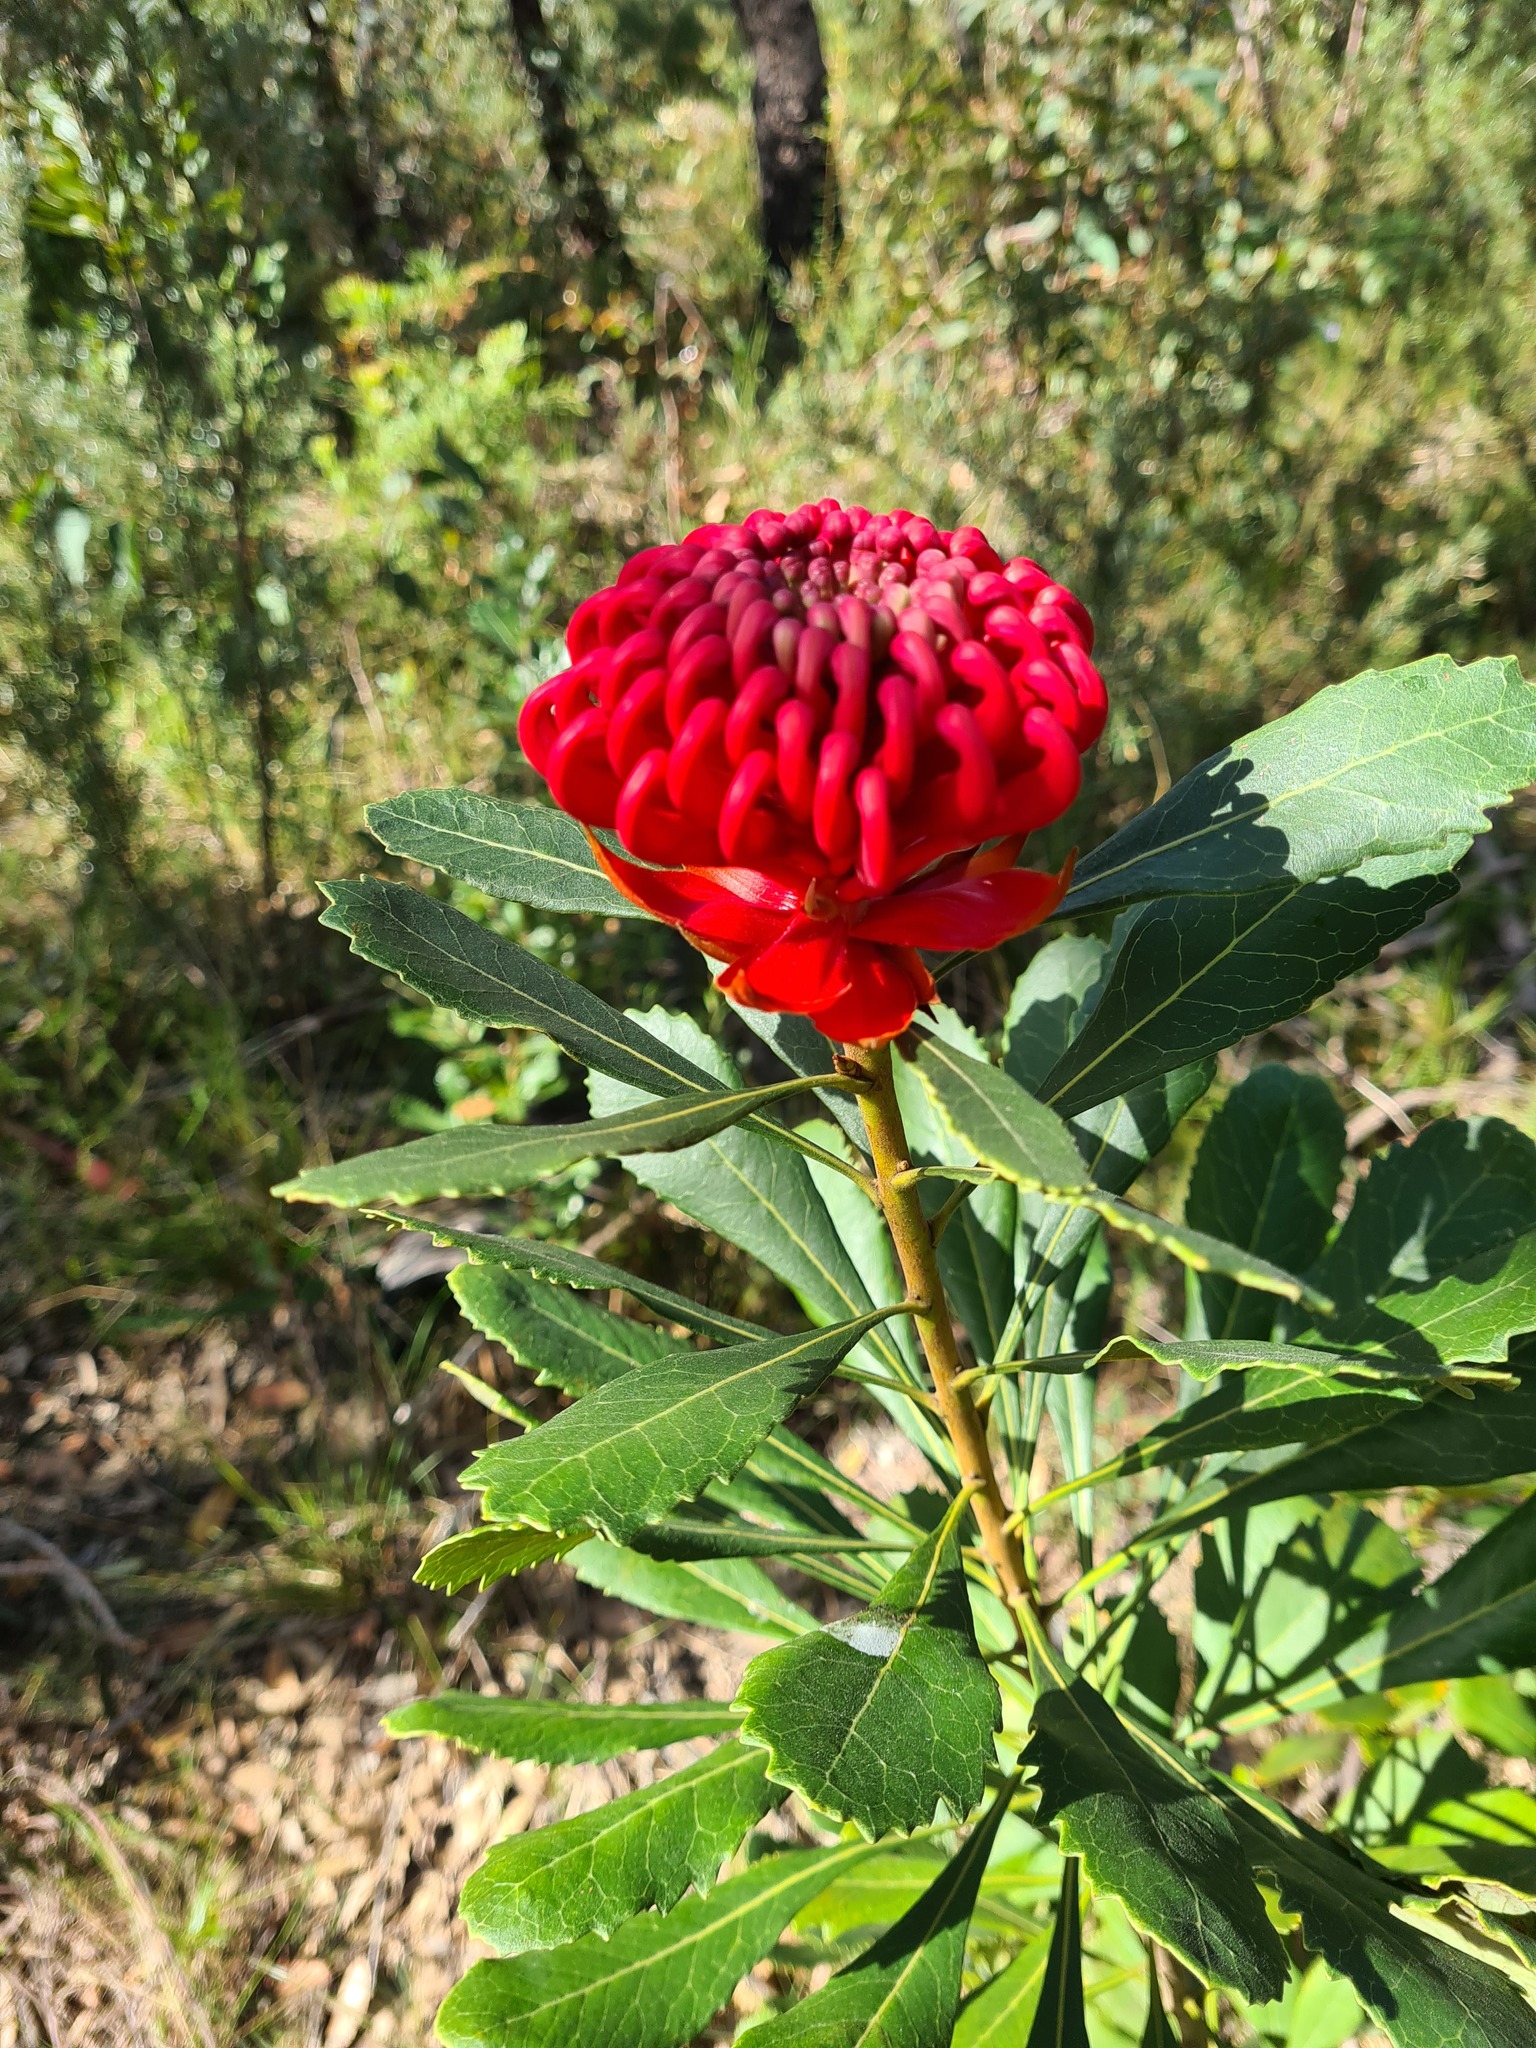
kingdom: Plantae
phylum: Tracheophyta
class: Magnoliopsida
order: Proteales
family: Proteaceae
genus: Telopea
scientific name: Telopea speciosissima
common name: New south wales waratah
